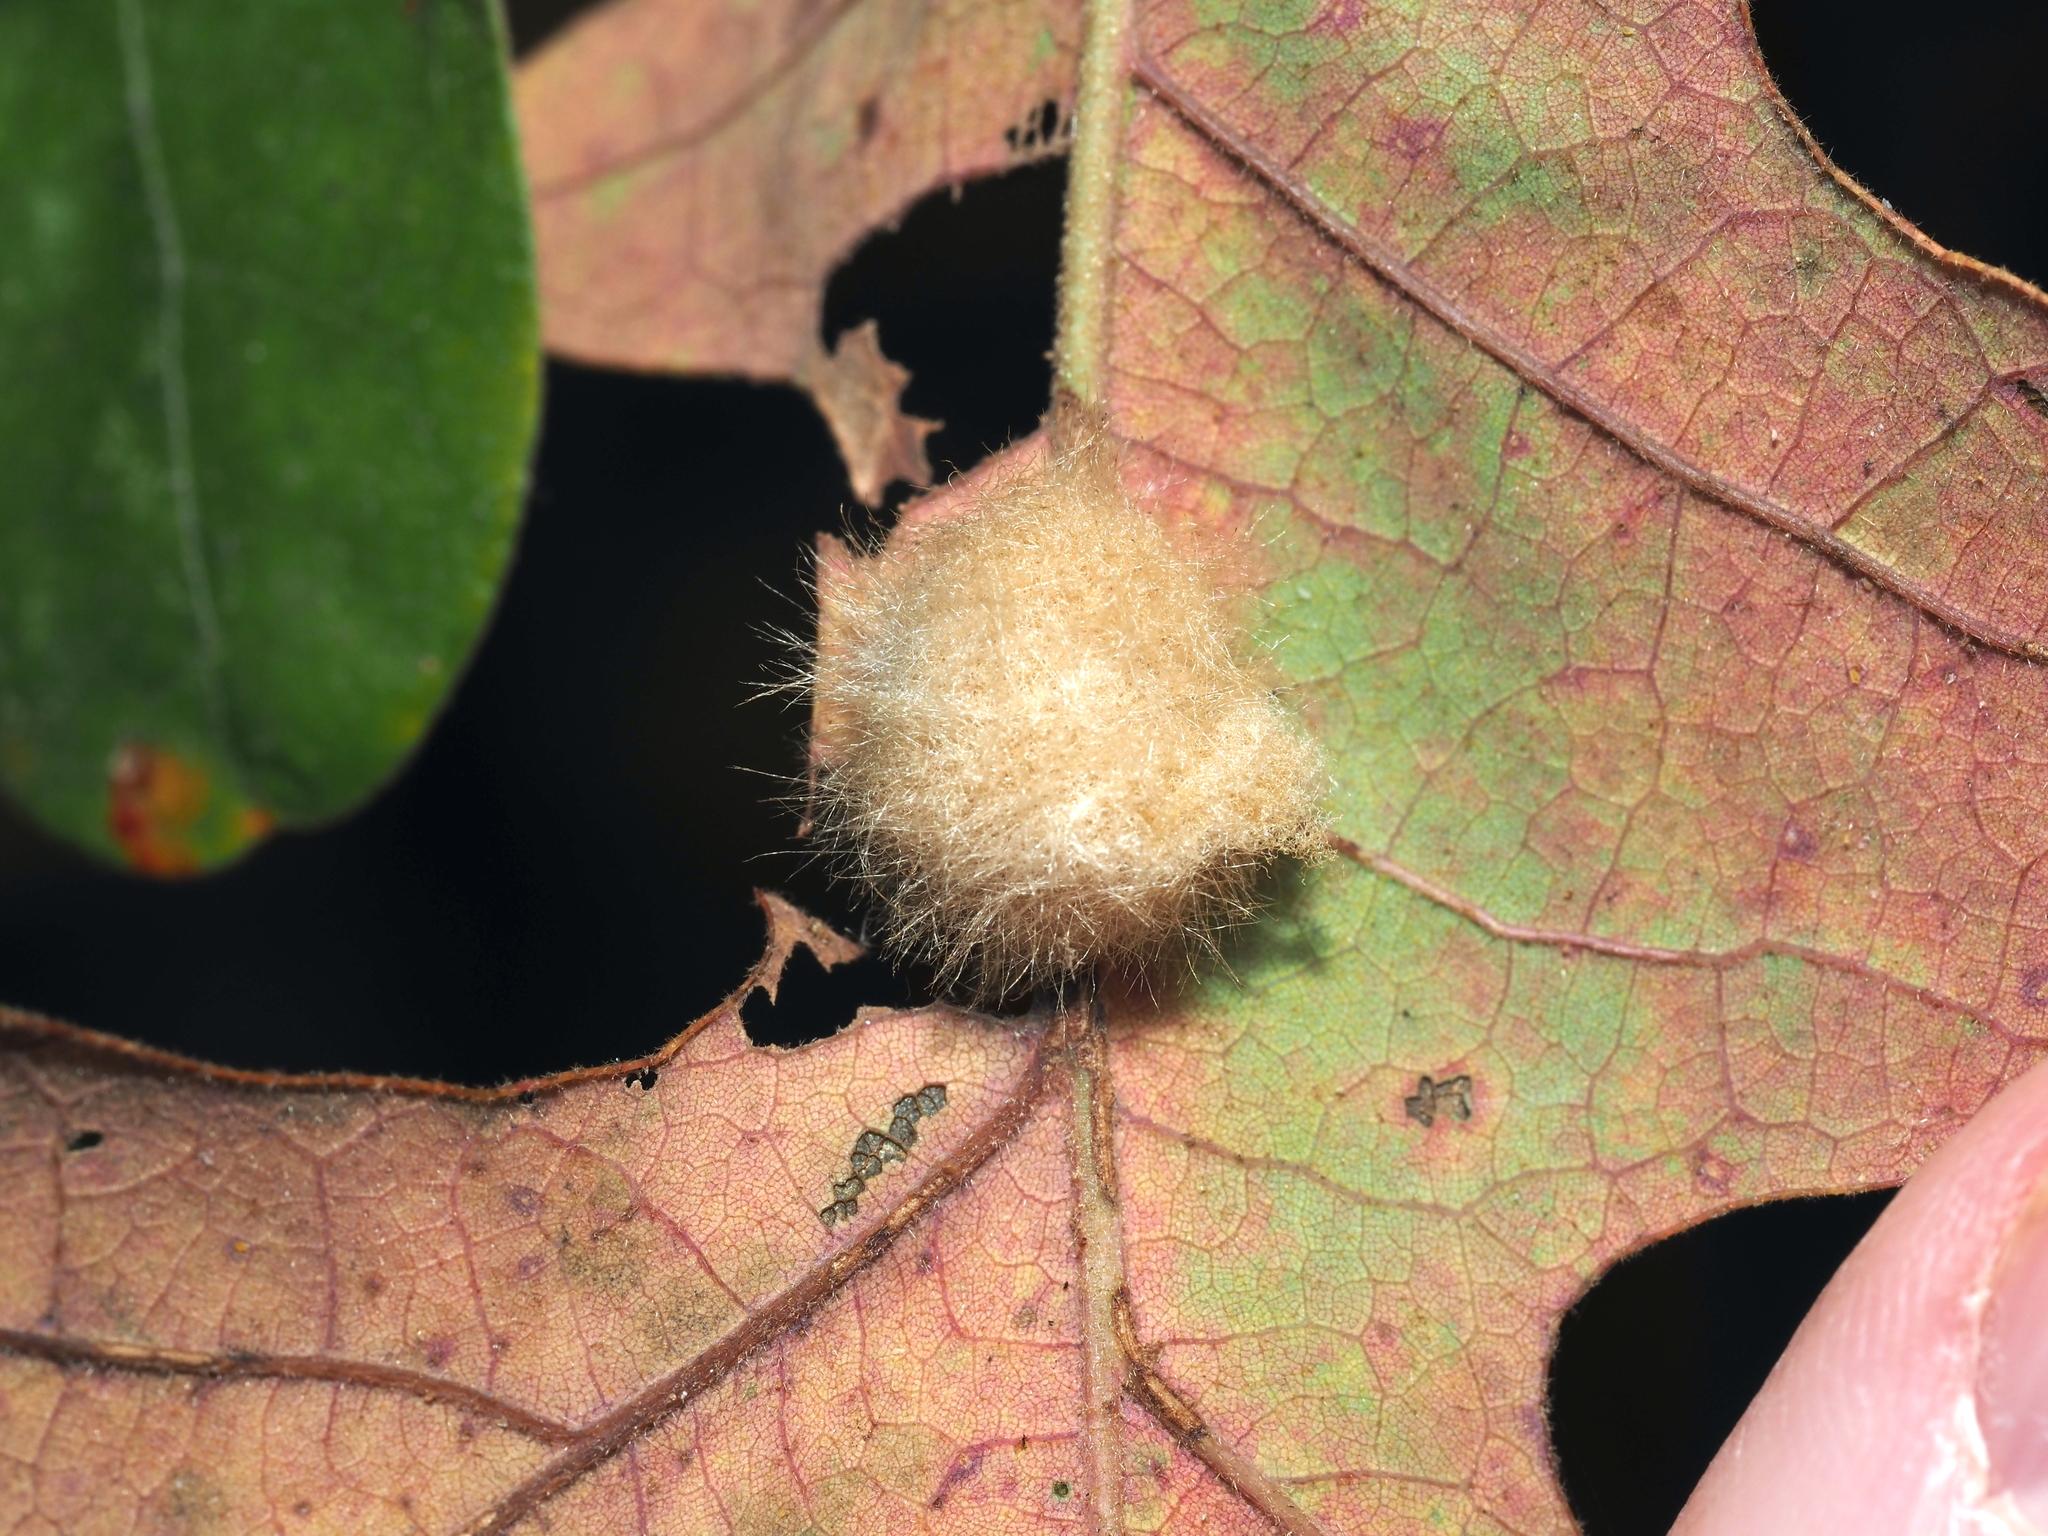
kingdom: Animalia
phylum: Arthropoda
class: Insecta
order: Hymenoptera
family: Cynipidae
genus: Andricus
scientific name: Andricus Druon pattoni
